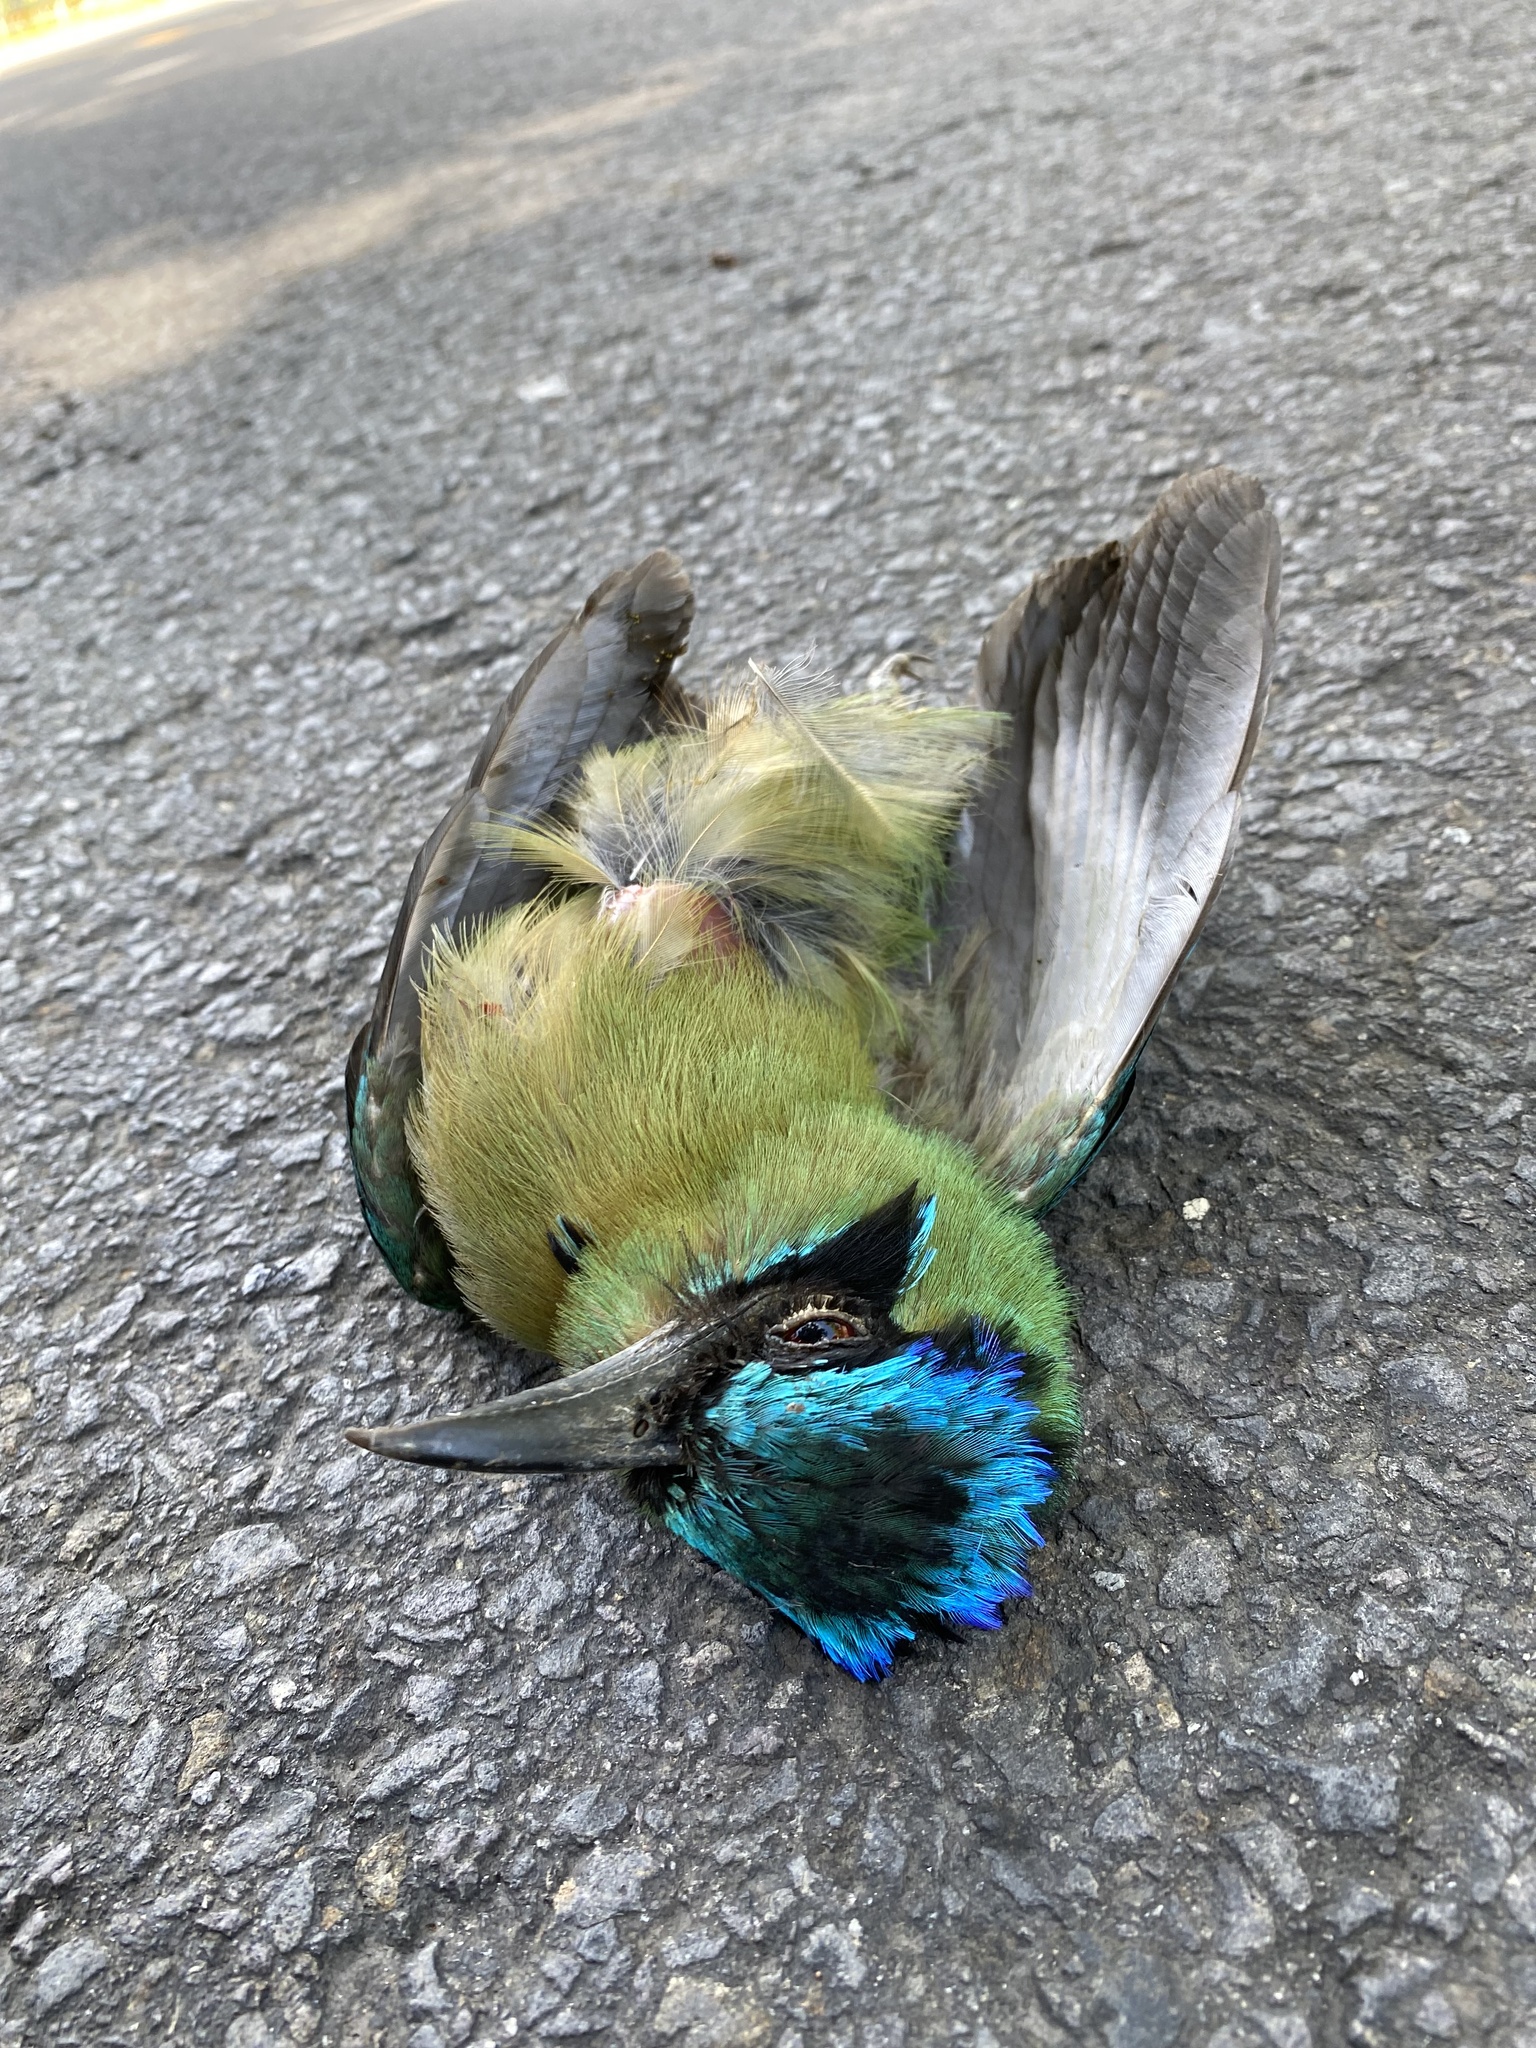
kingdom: Animalia
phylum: Chordata
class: Aves
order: Coraciiformes
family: Momotidae
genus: Momotus
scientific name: Momotus lessonii
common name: Lesson's motmot
